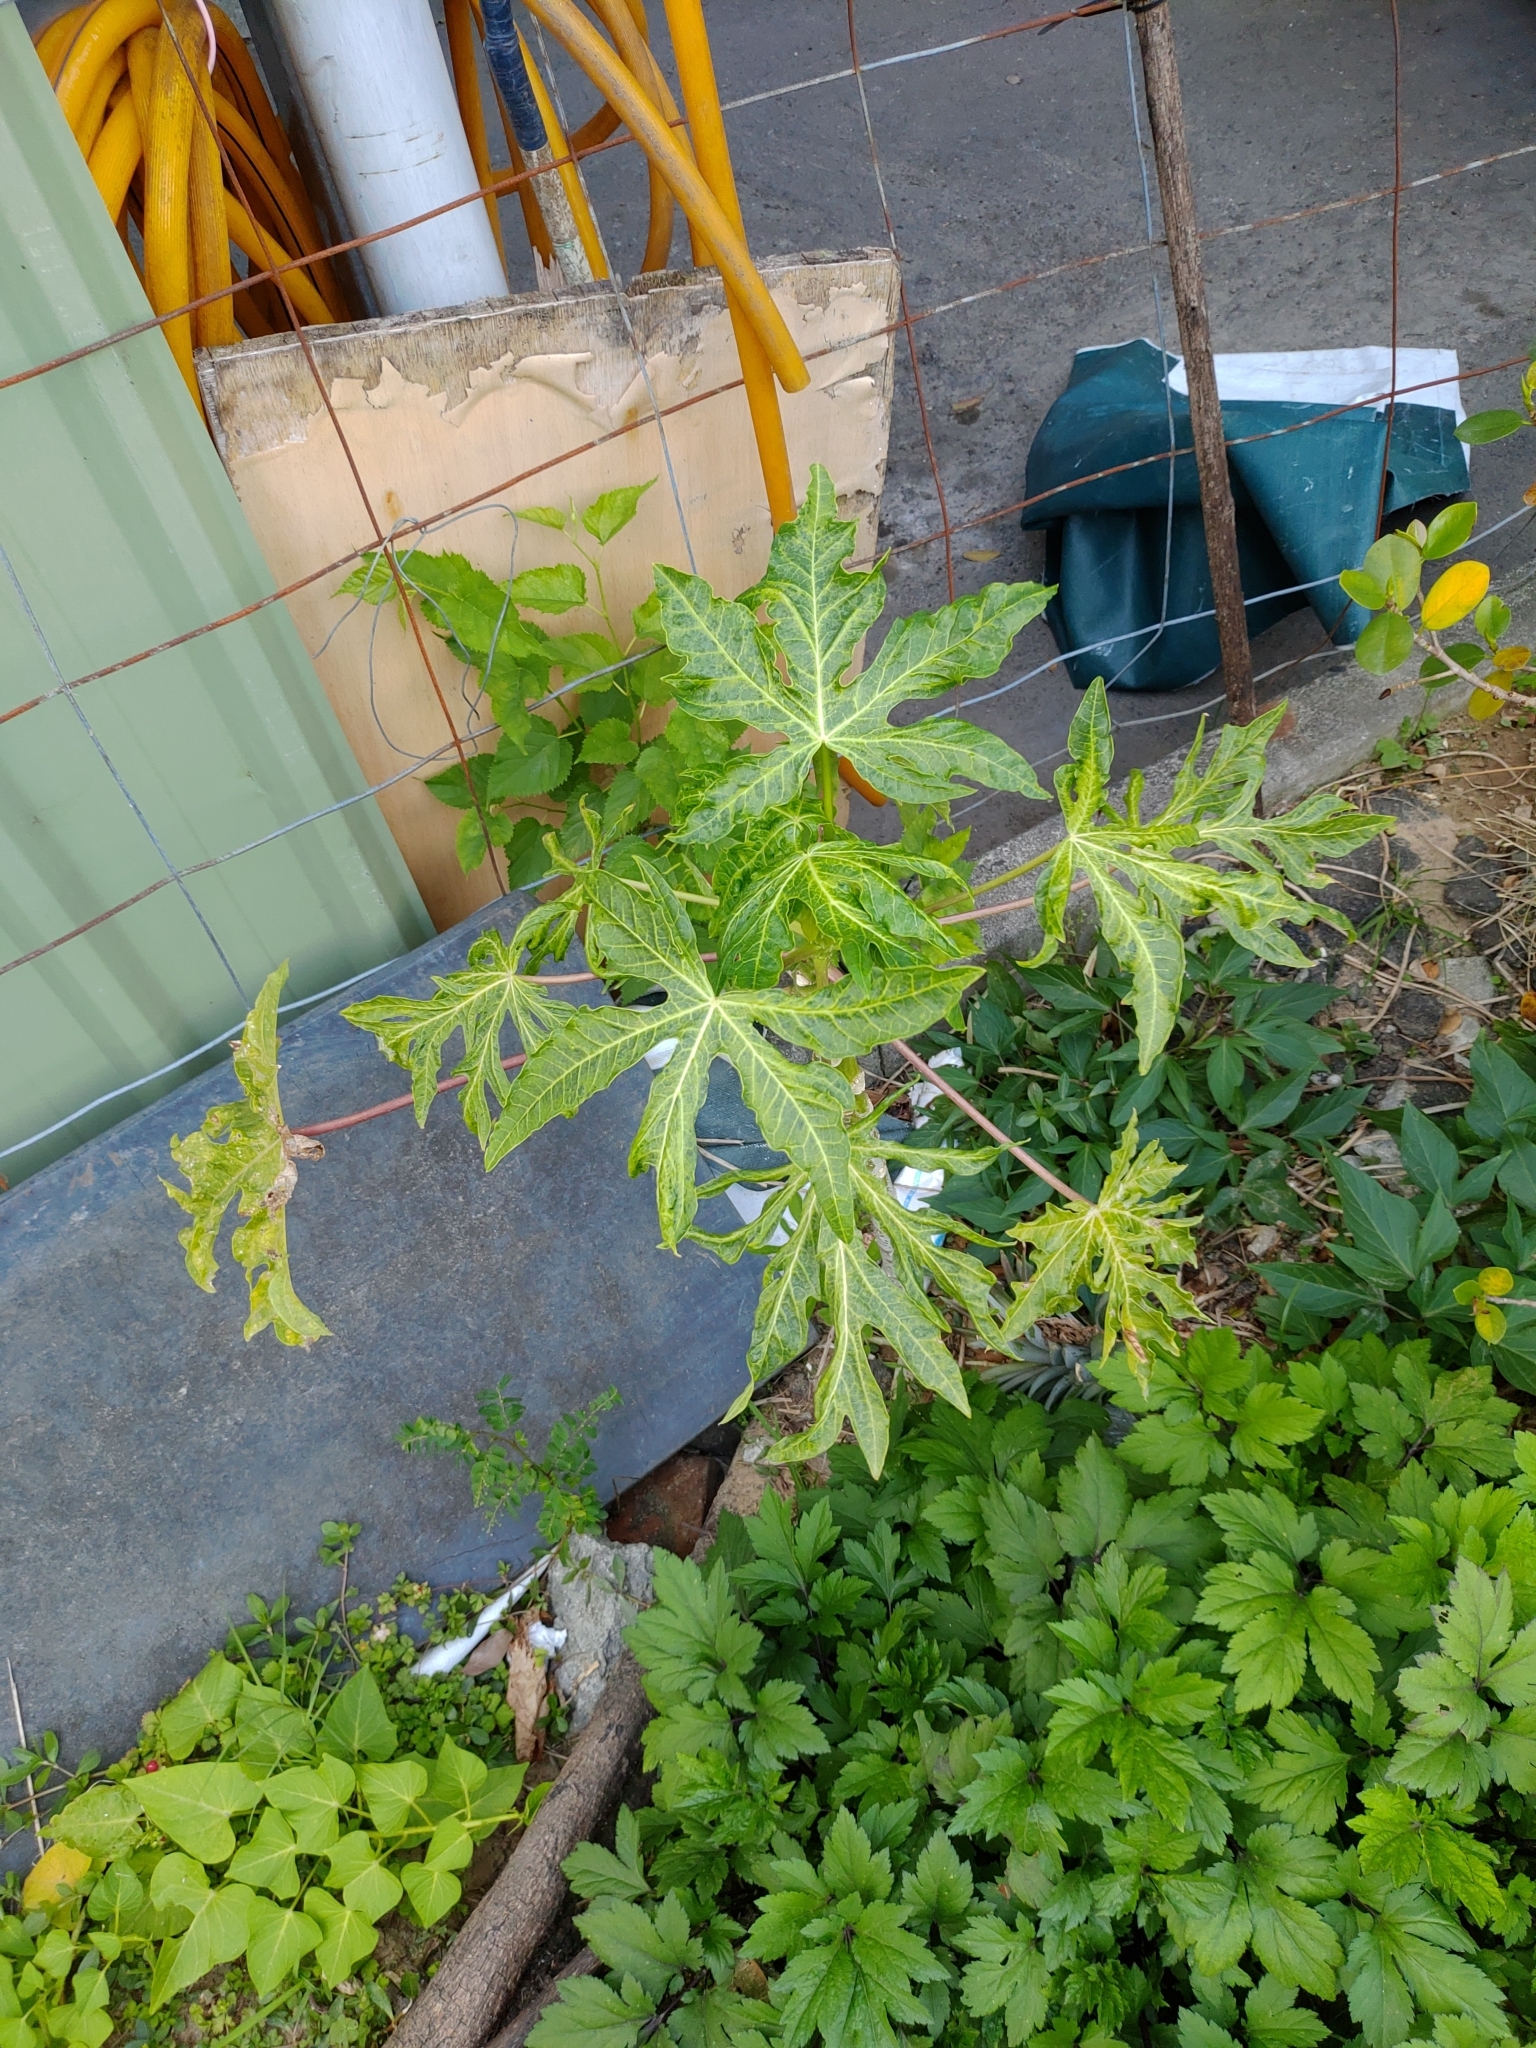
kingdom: Plantae
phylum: Tracheophyta
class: Magnoliopsida
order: Brassicales
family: Caricaceae
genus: Carica
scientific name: Carica papaya
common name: Papaya
